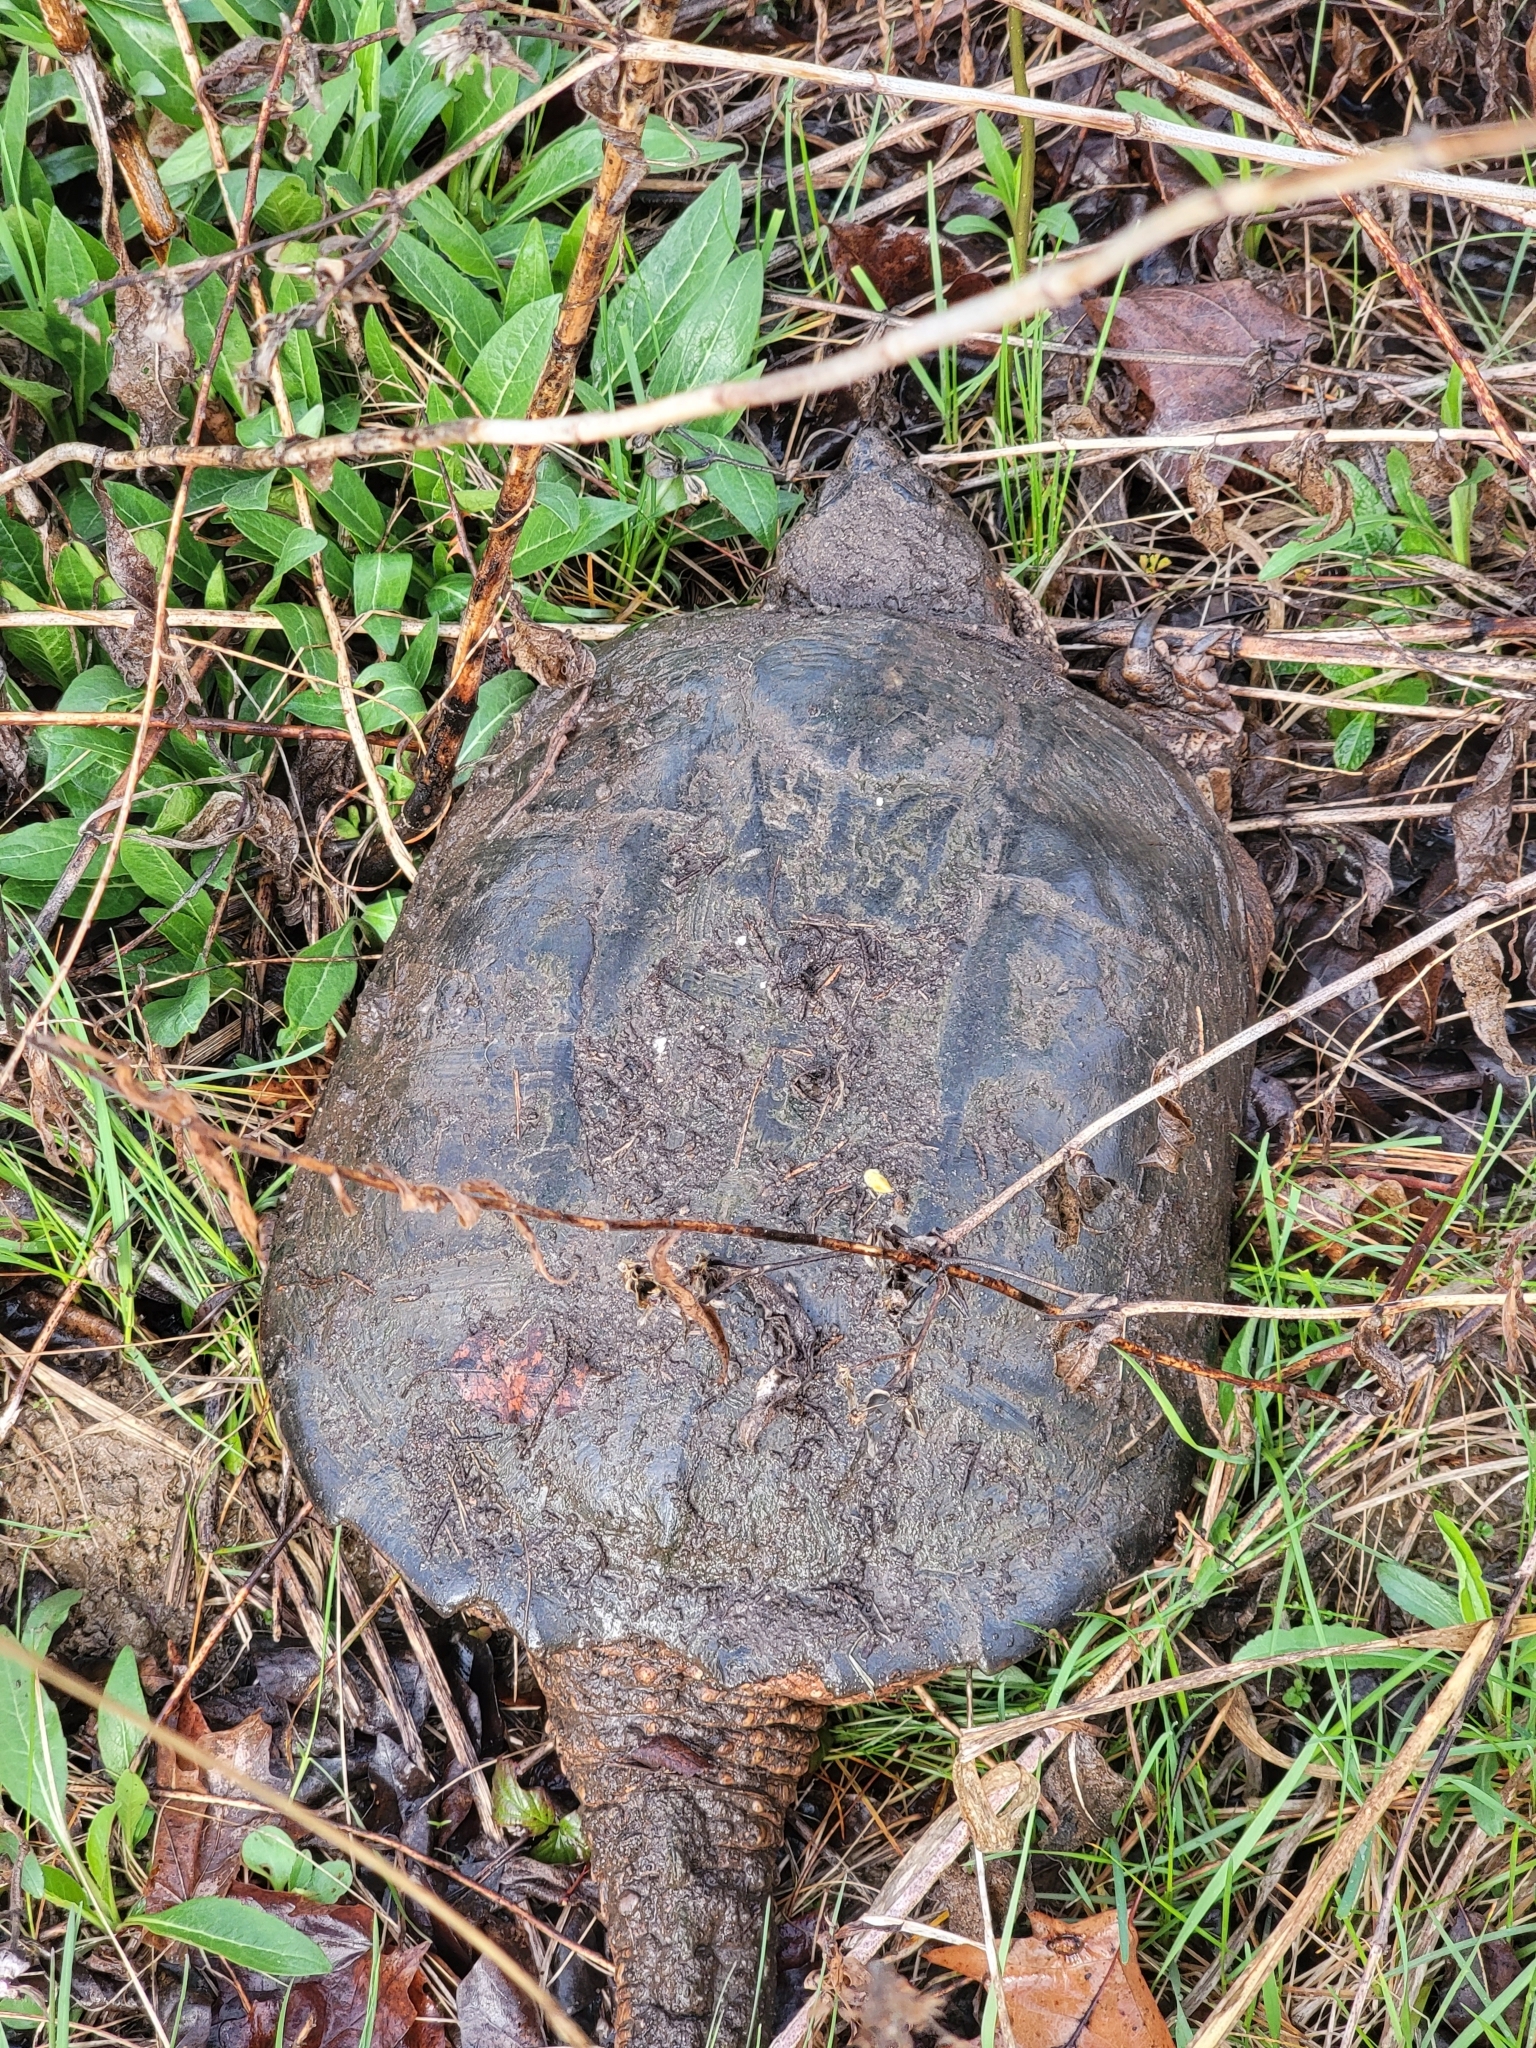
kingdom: Animalia
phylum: Chordata
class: Testudines
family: Chelydridae
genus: Chelydra
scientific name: Chelydra serpentina
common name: Common snapping turtle
